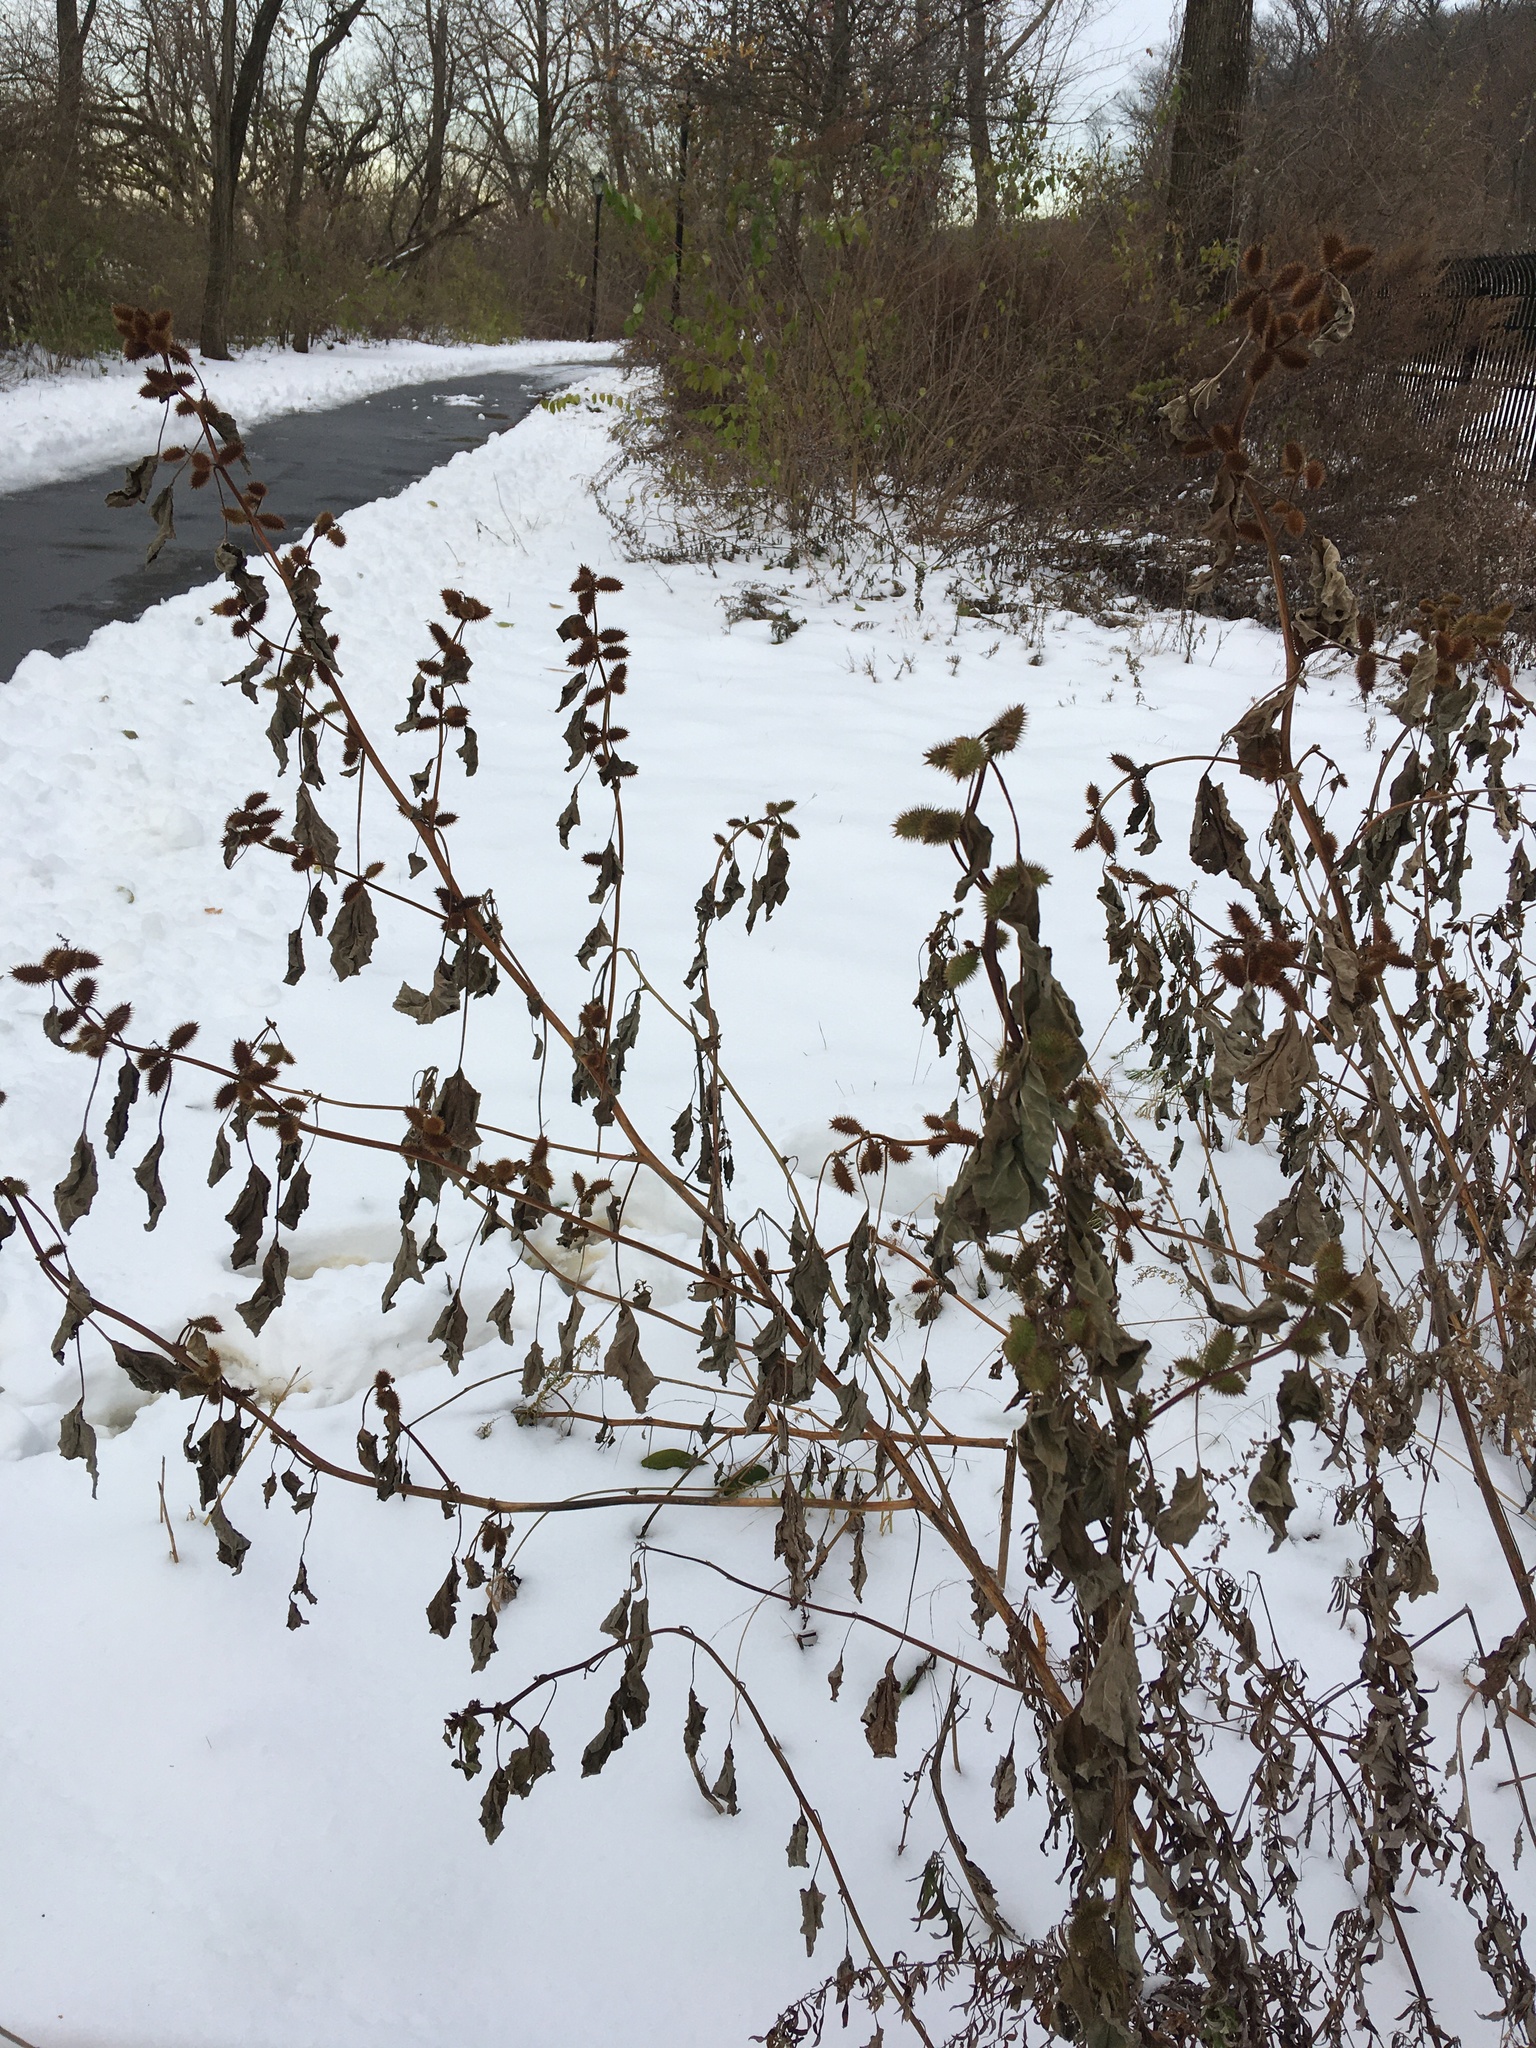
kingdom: Plantae
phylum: Tracheophyta
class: Magnoliopsida
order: Asterales
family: Asteraceae
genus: Xanthium
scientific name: Xanthium strumarium
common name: Rough cocklebur
